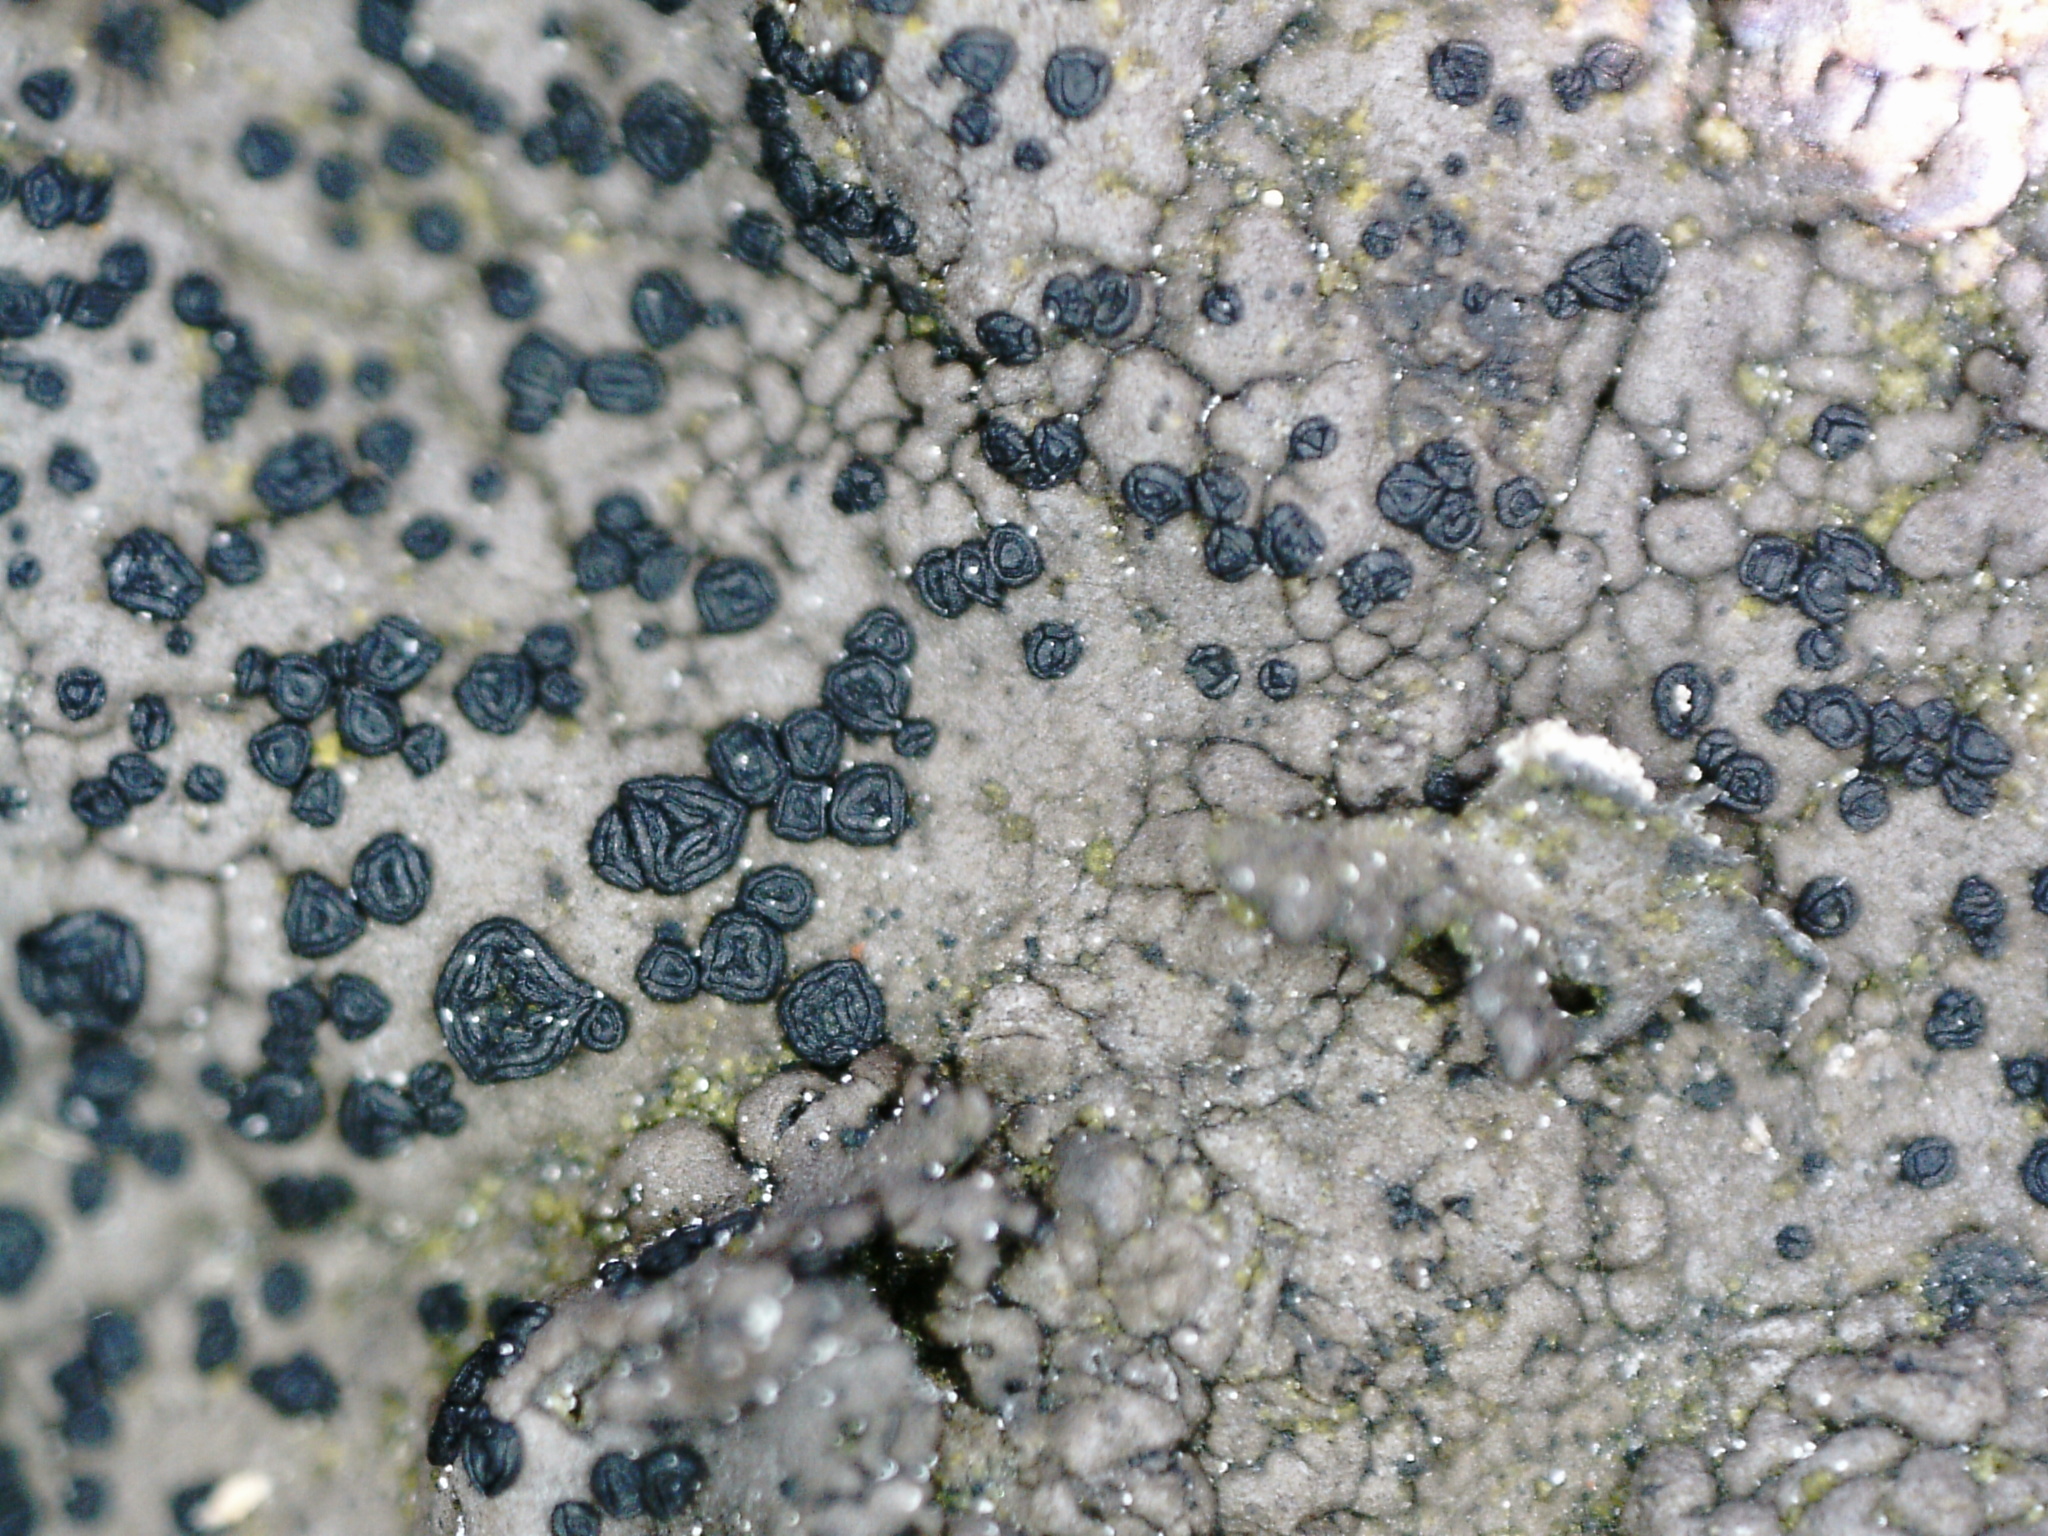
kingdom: Fungi
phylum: Ascomycota
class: Lecanoromycetes
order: Umbilicariales
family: Umbilicariaceae
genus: Umbilicaria
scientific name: Umbilicaria hyperborea
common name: Blistered rock tripe
